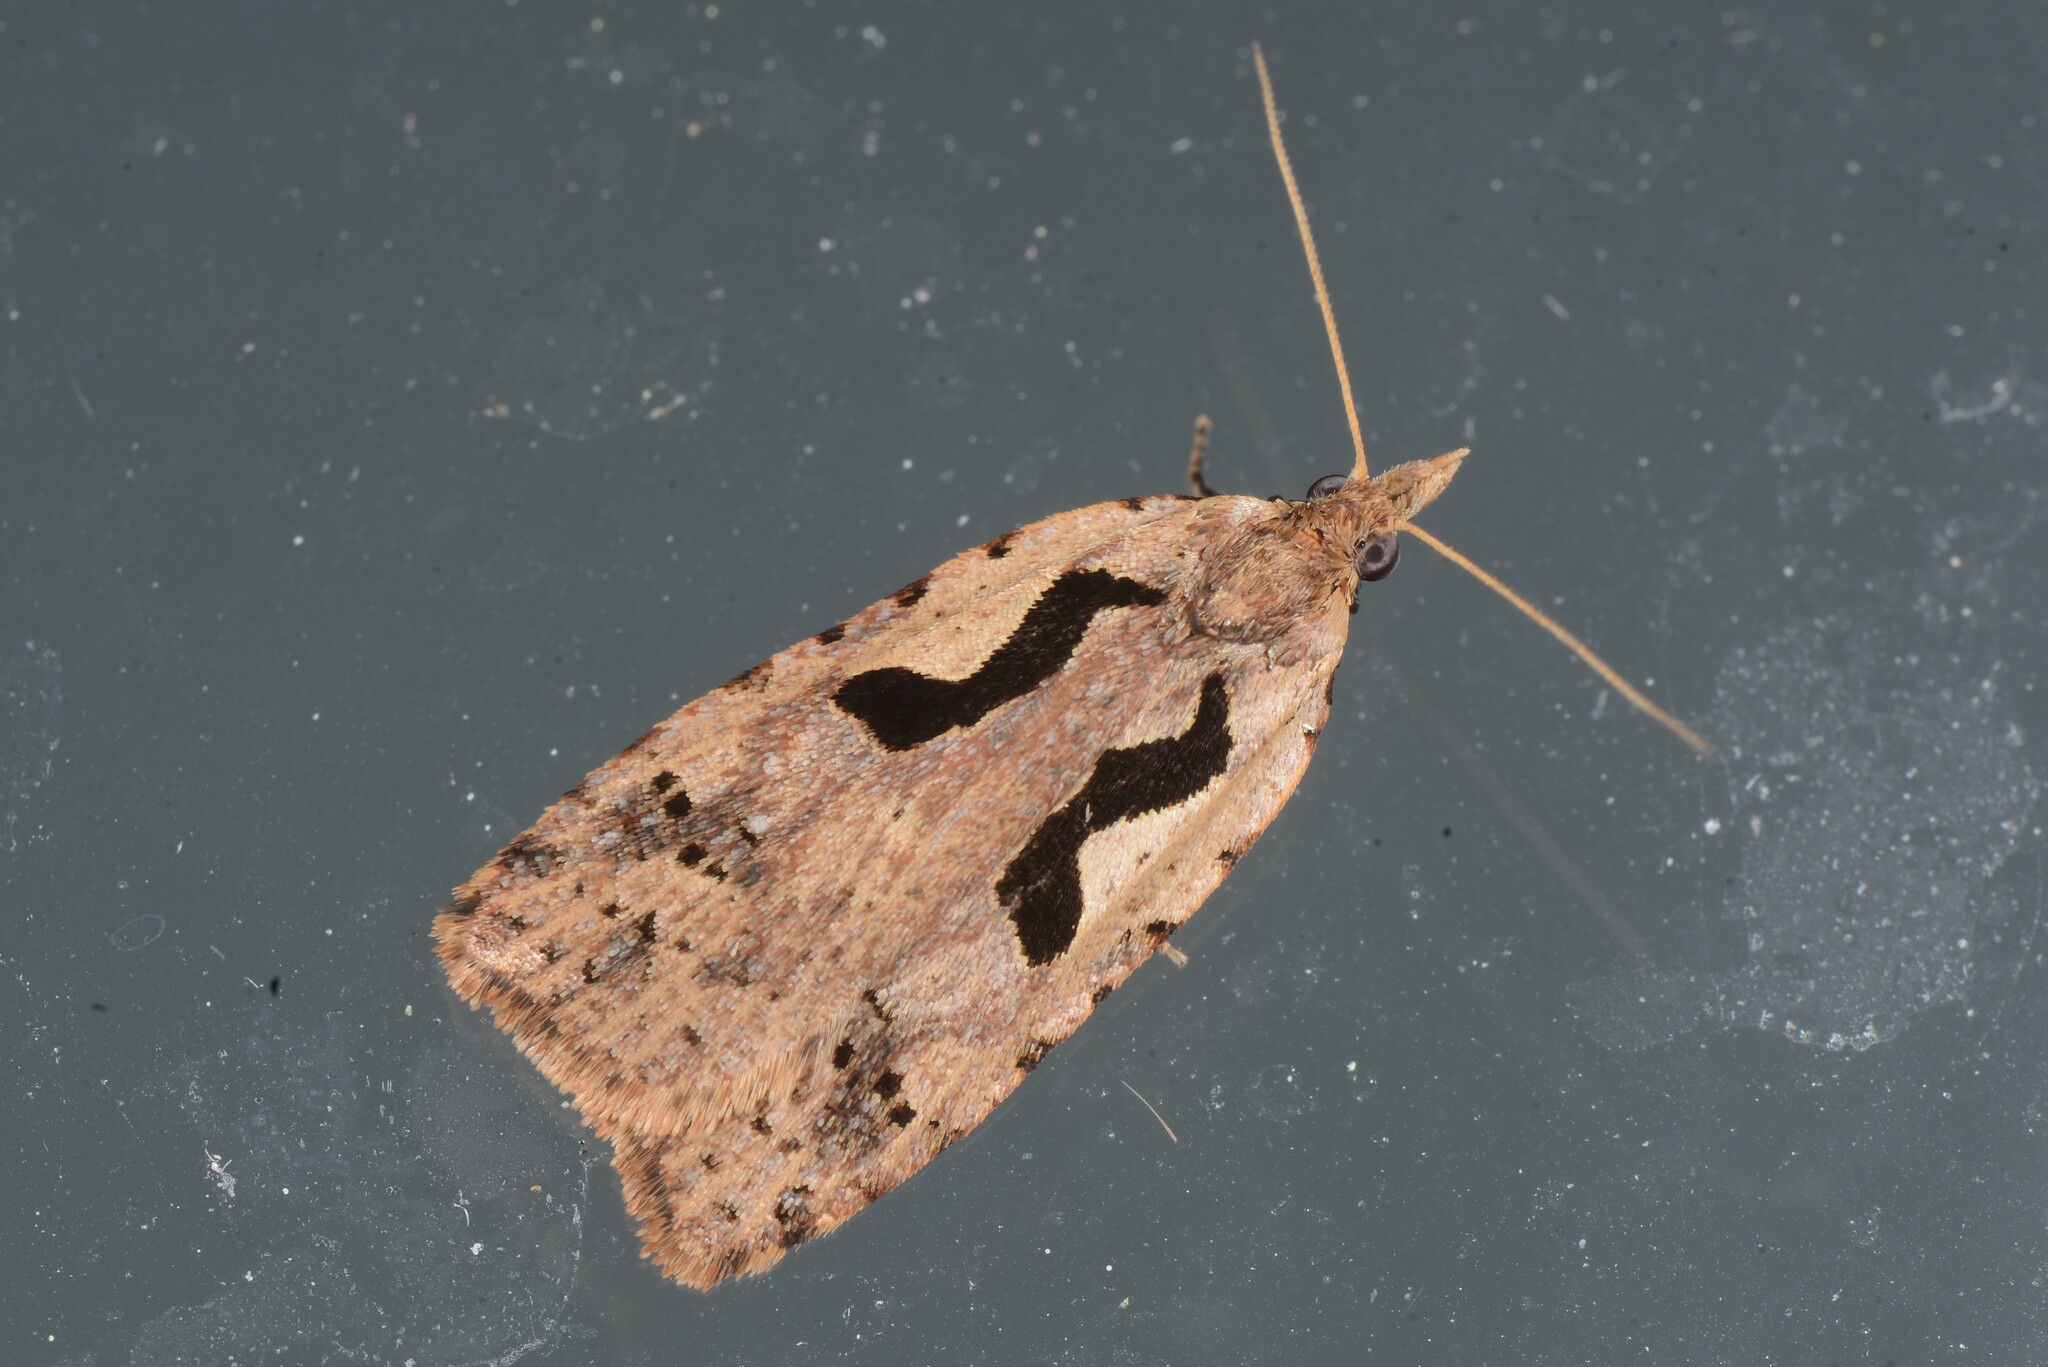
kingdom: Animalia
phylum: Arthropoda
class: Insecta
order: Lepidoptera
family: Tortricidae
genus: Cnephasia
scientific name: Cnephasia jactatana
